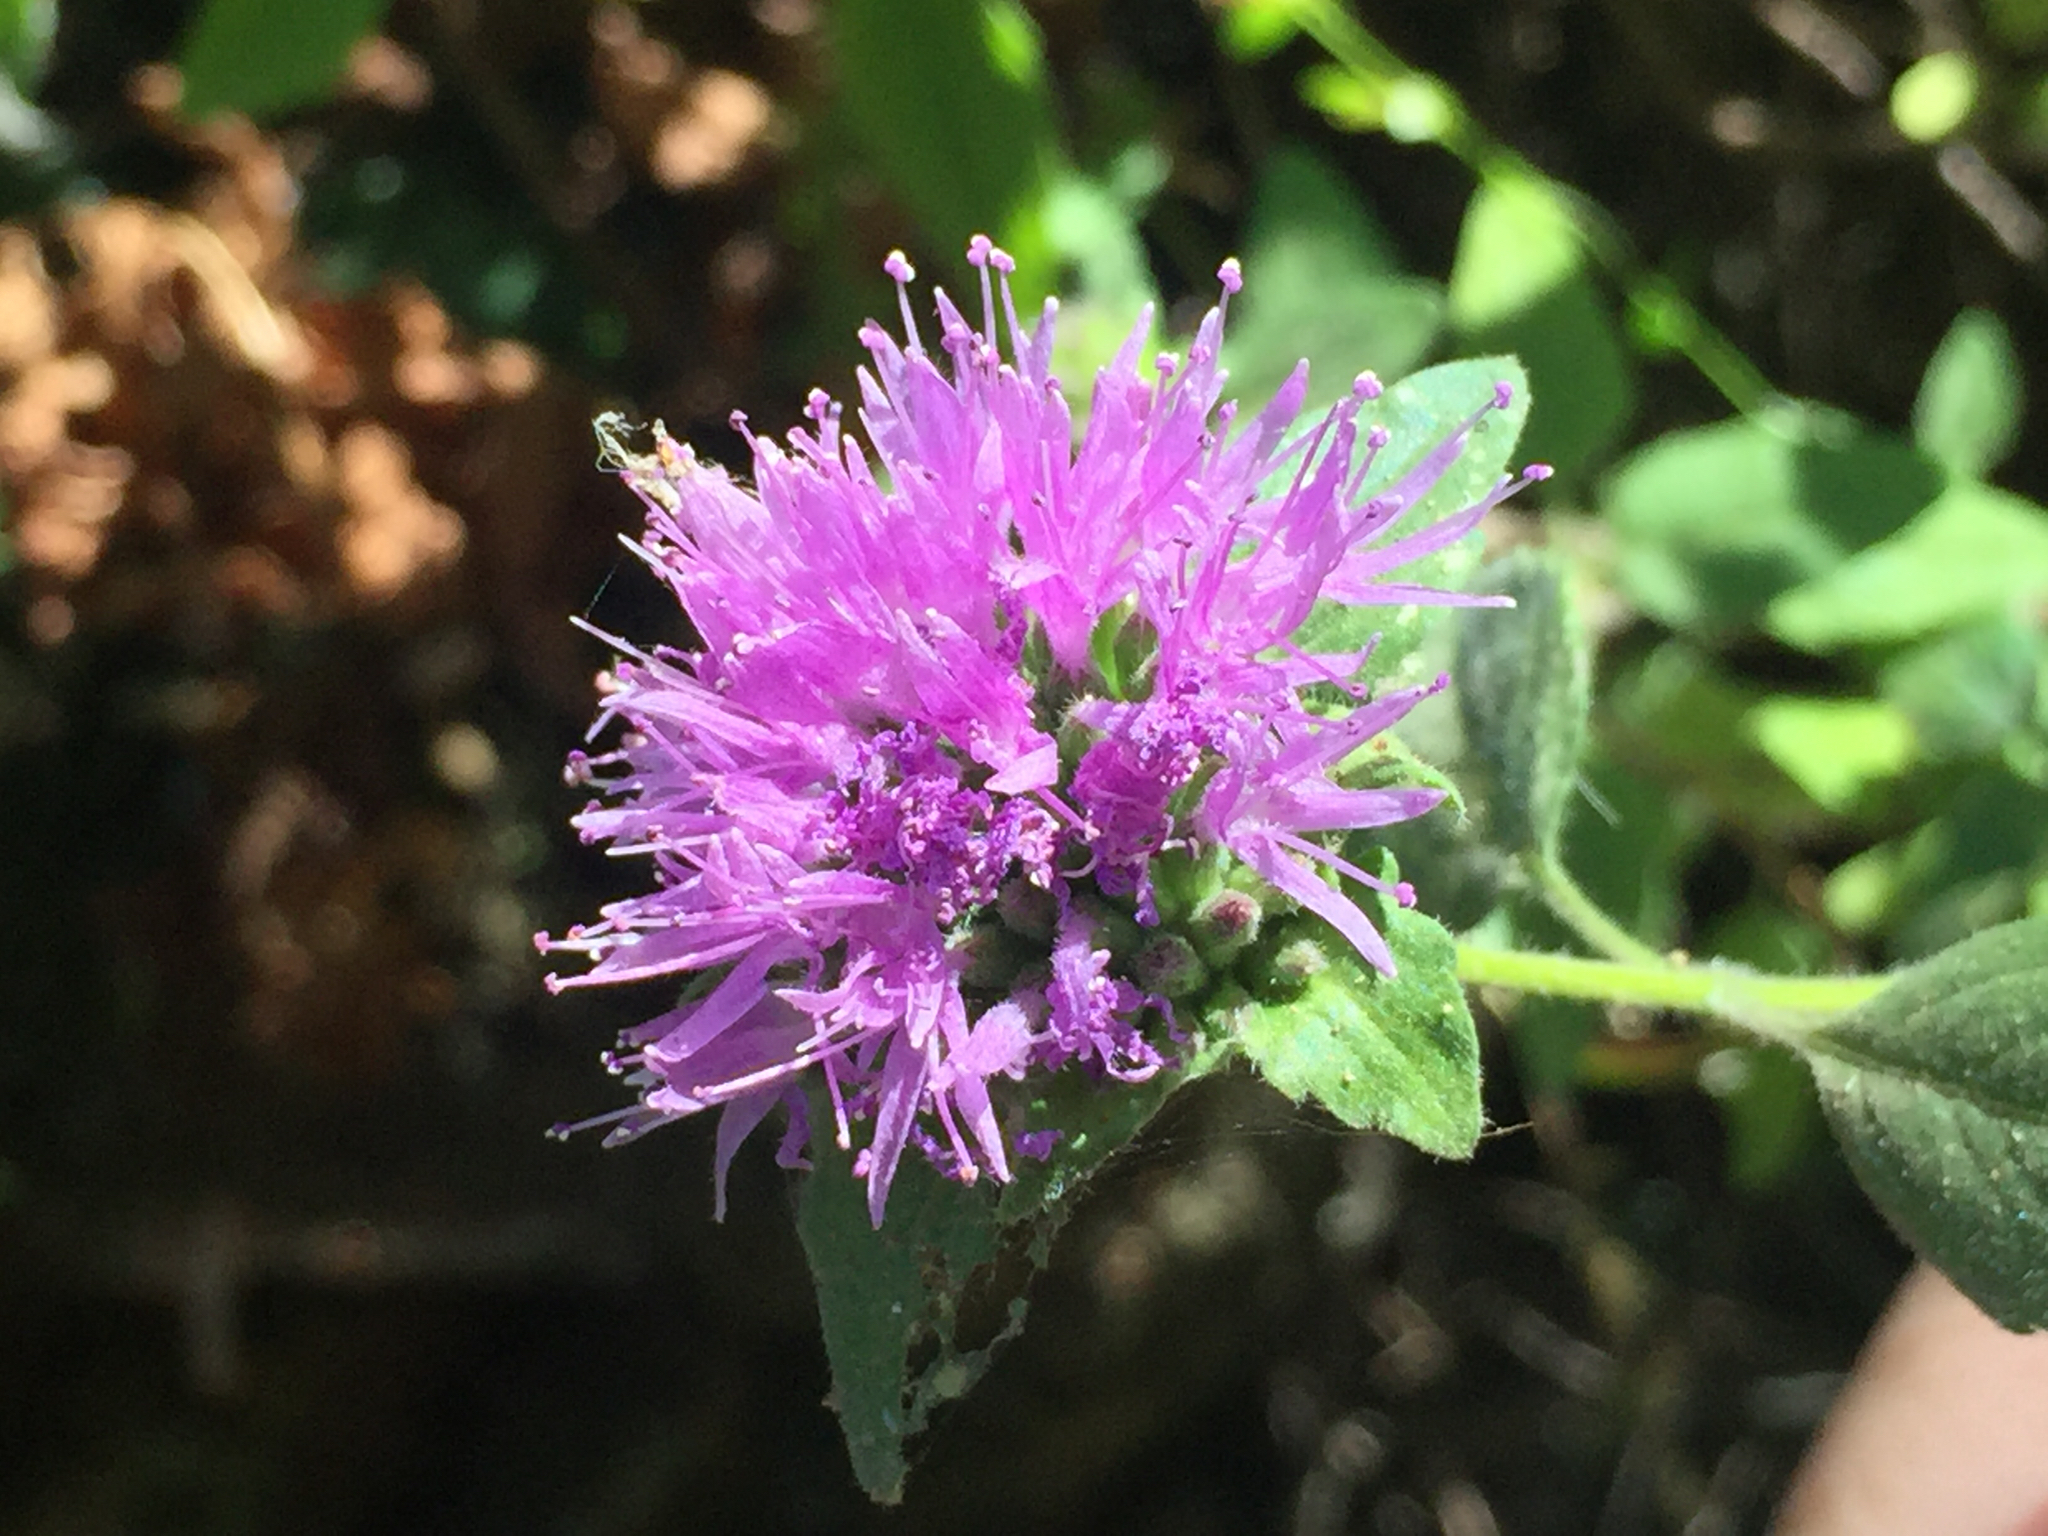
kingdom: Plantae
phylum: Tracheophyta
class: Magnoliopsida
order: Lamiales
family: Lamiaceae
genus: Monardella
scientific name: Monardella odoratissima
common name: Pacific monardella
